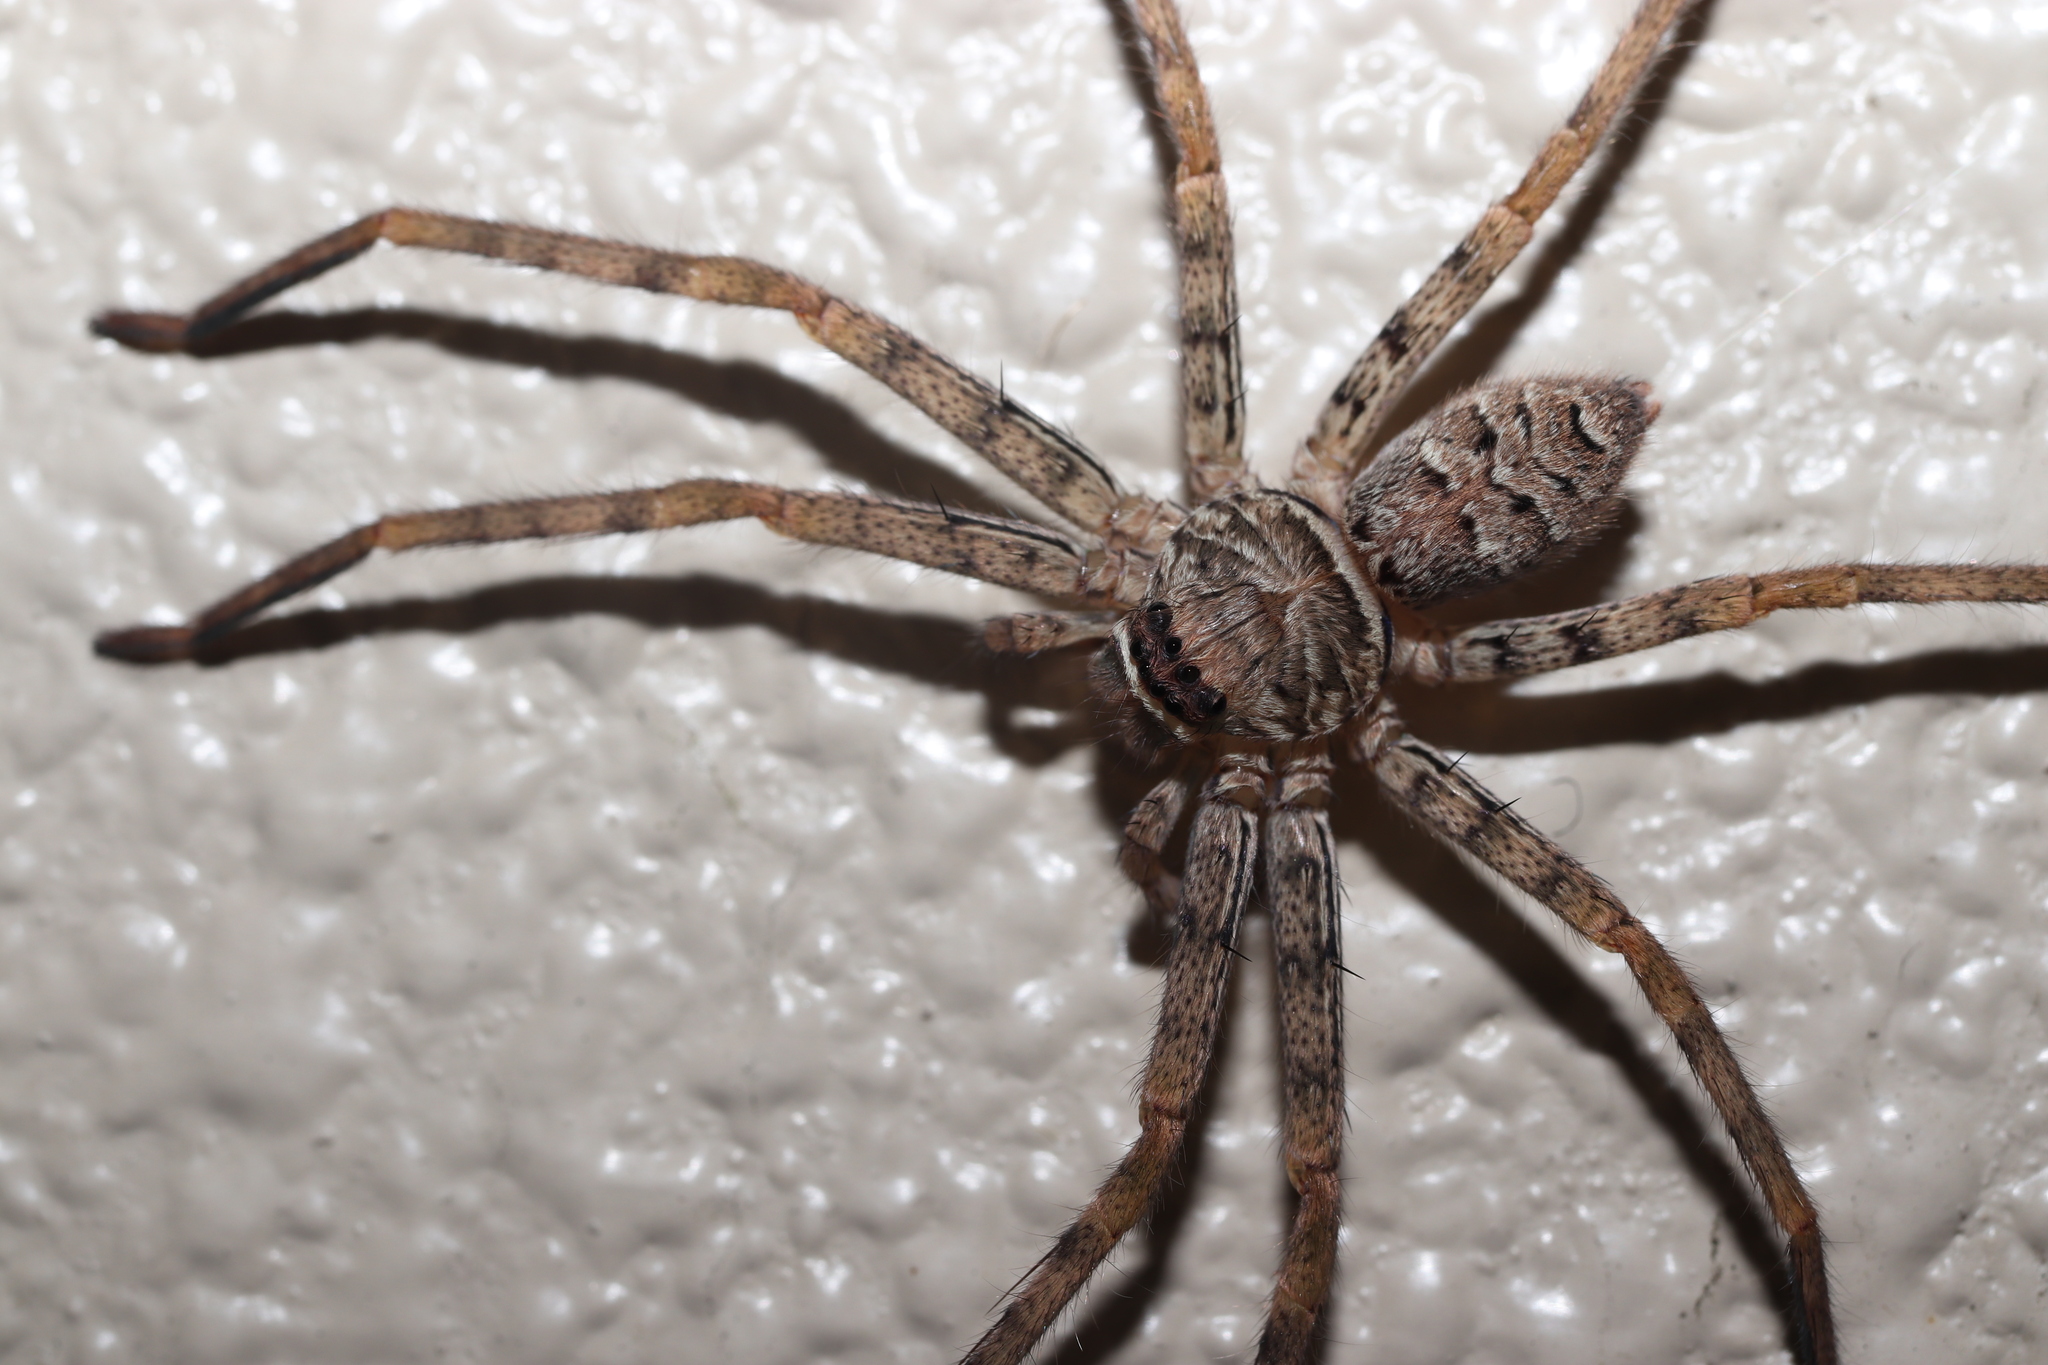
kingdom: Animalia
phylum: Arthropoda
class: Arachnida
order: Araneae
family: Sparassidae
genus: Heteropoda
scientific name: Heteropoda venatoria
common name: Huntsman spider
